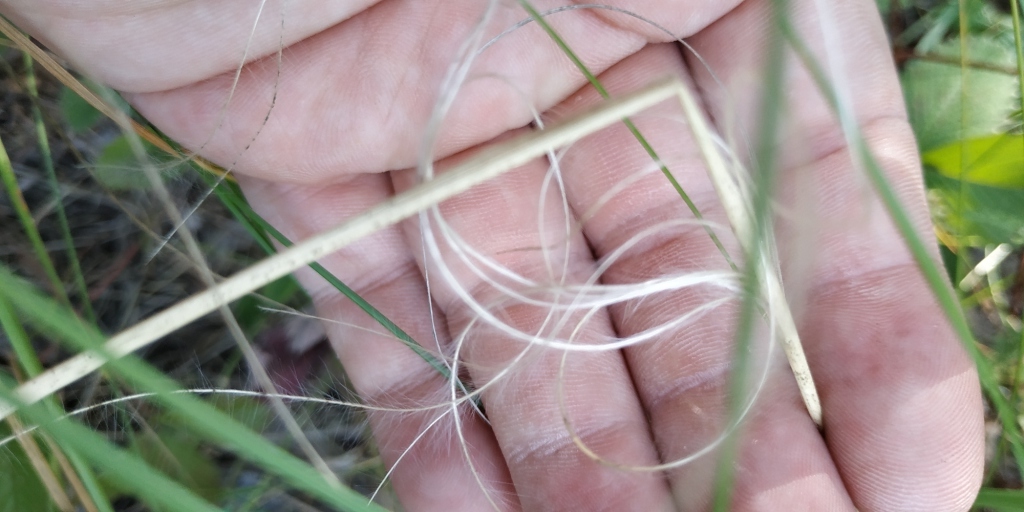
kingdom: Plantae
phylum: Tracheophyta
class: Liliopsida
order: Poales
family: Poaceae
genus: Stipa
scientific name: Stipa pennata
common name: European feather grass
